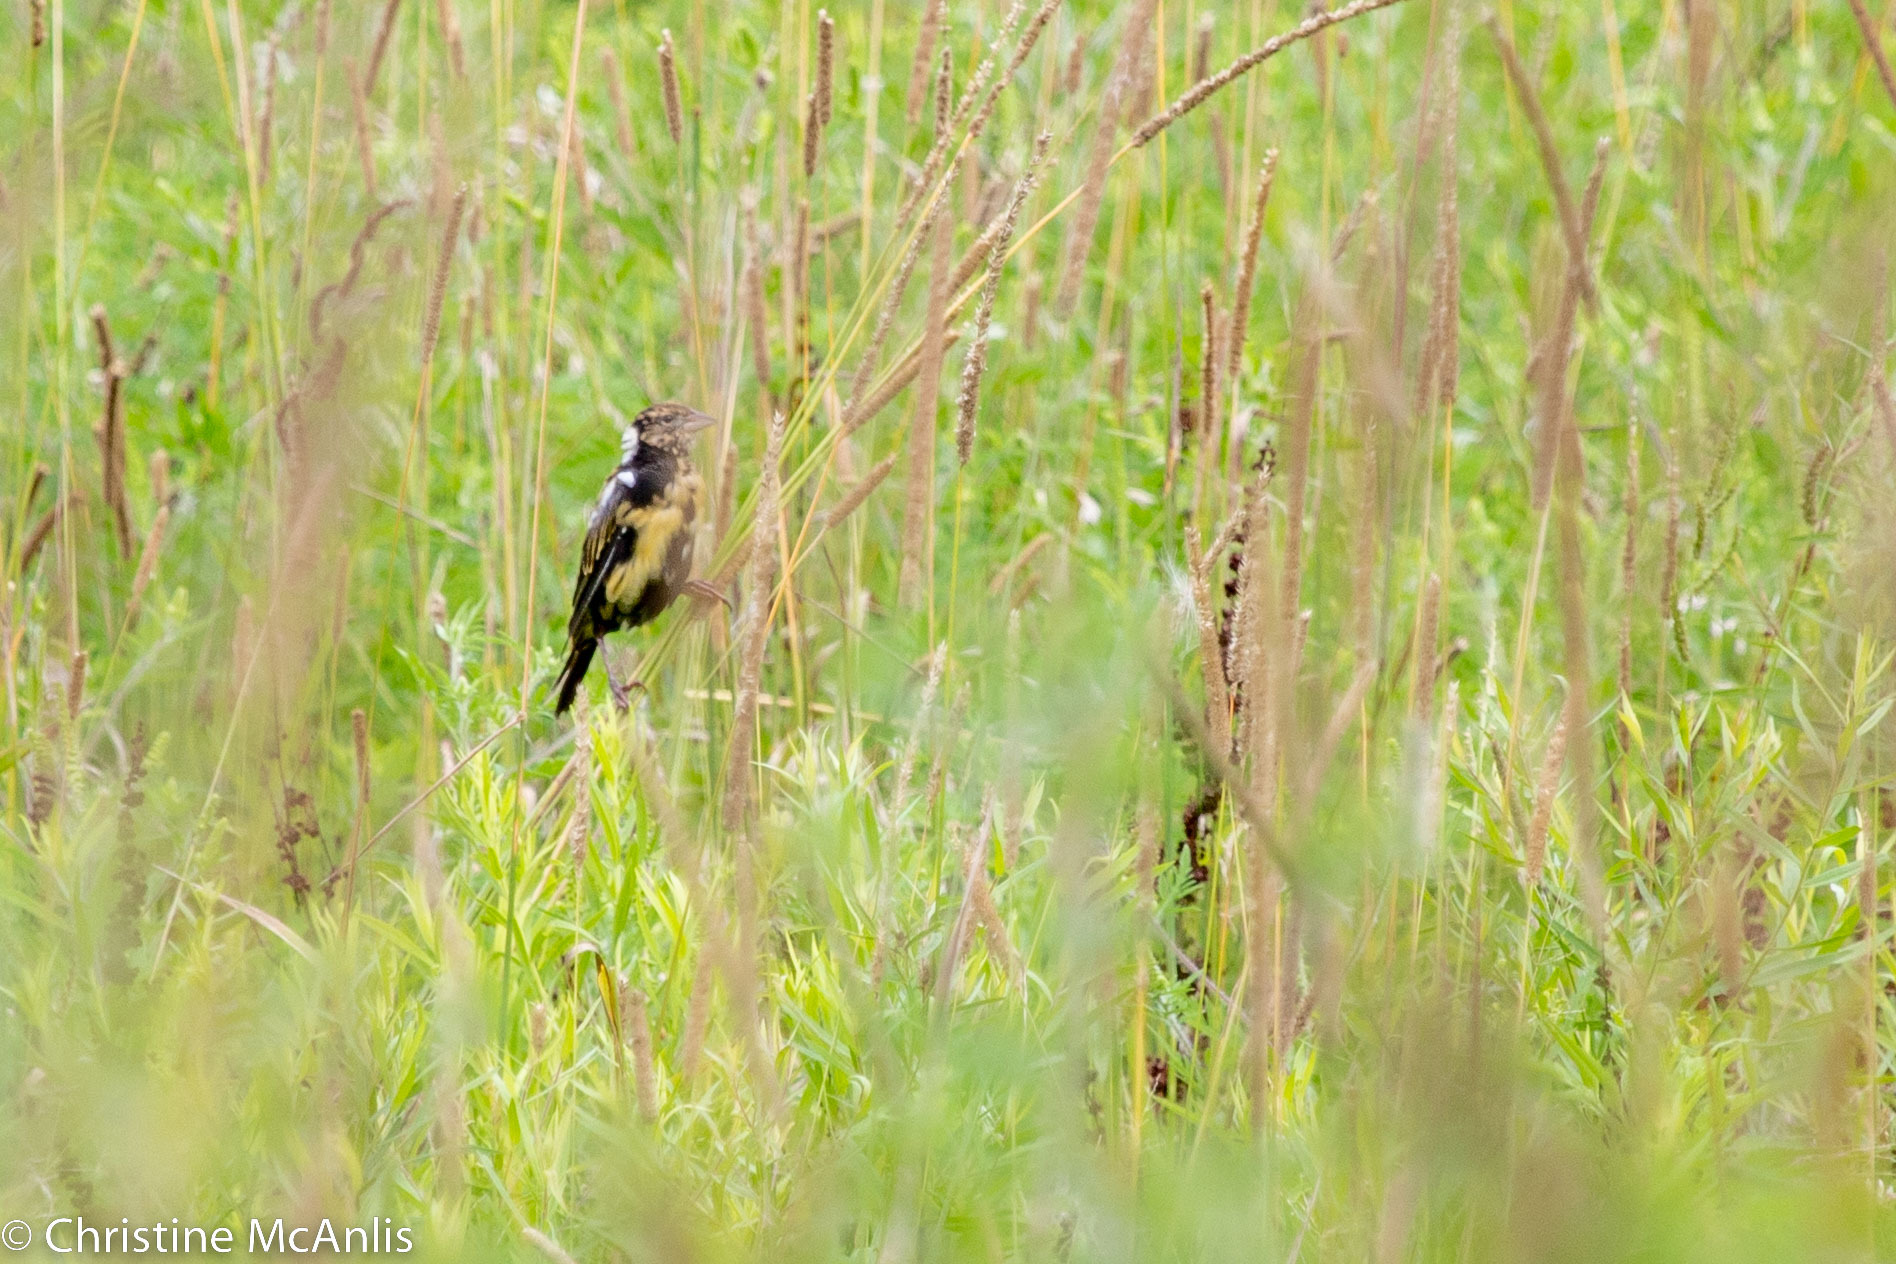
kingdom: Animalia
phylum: Chordata
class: Aves
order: Passeriformes
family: Icteridae
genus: Dolichonyx
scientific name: Dolichonyx oryzivorus
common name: Bobolink
